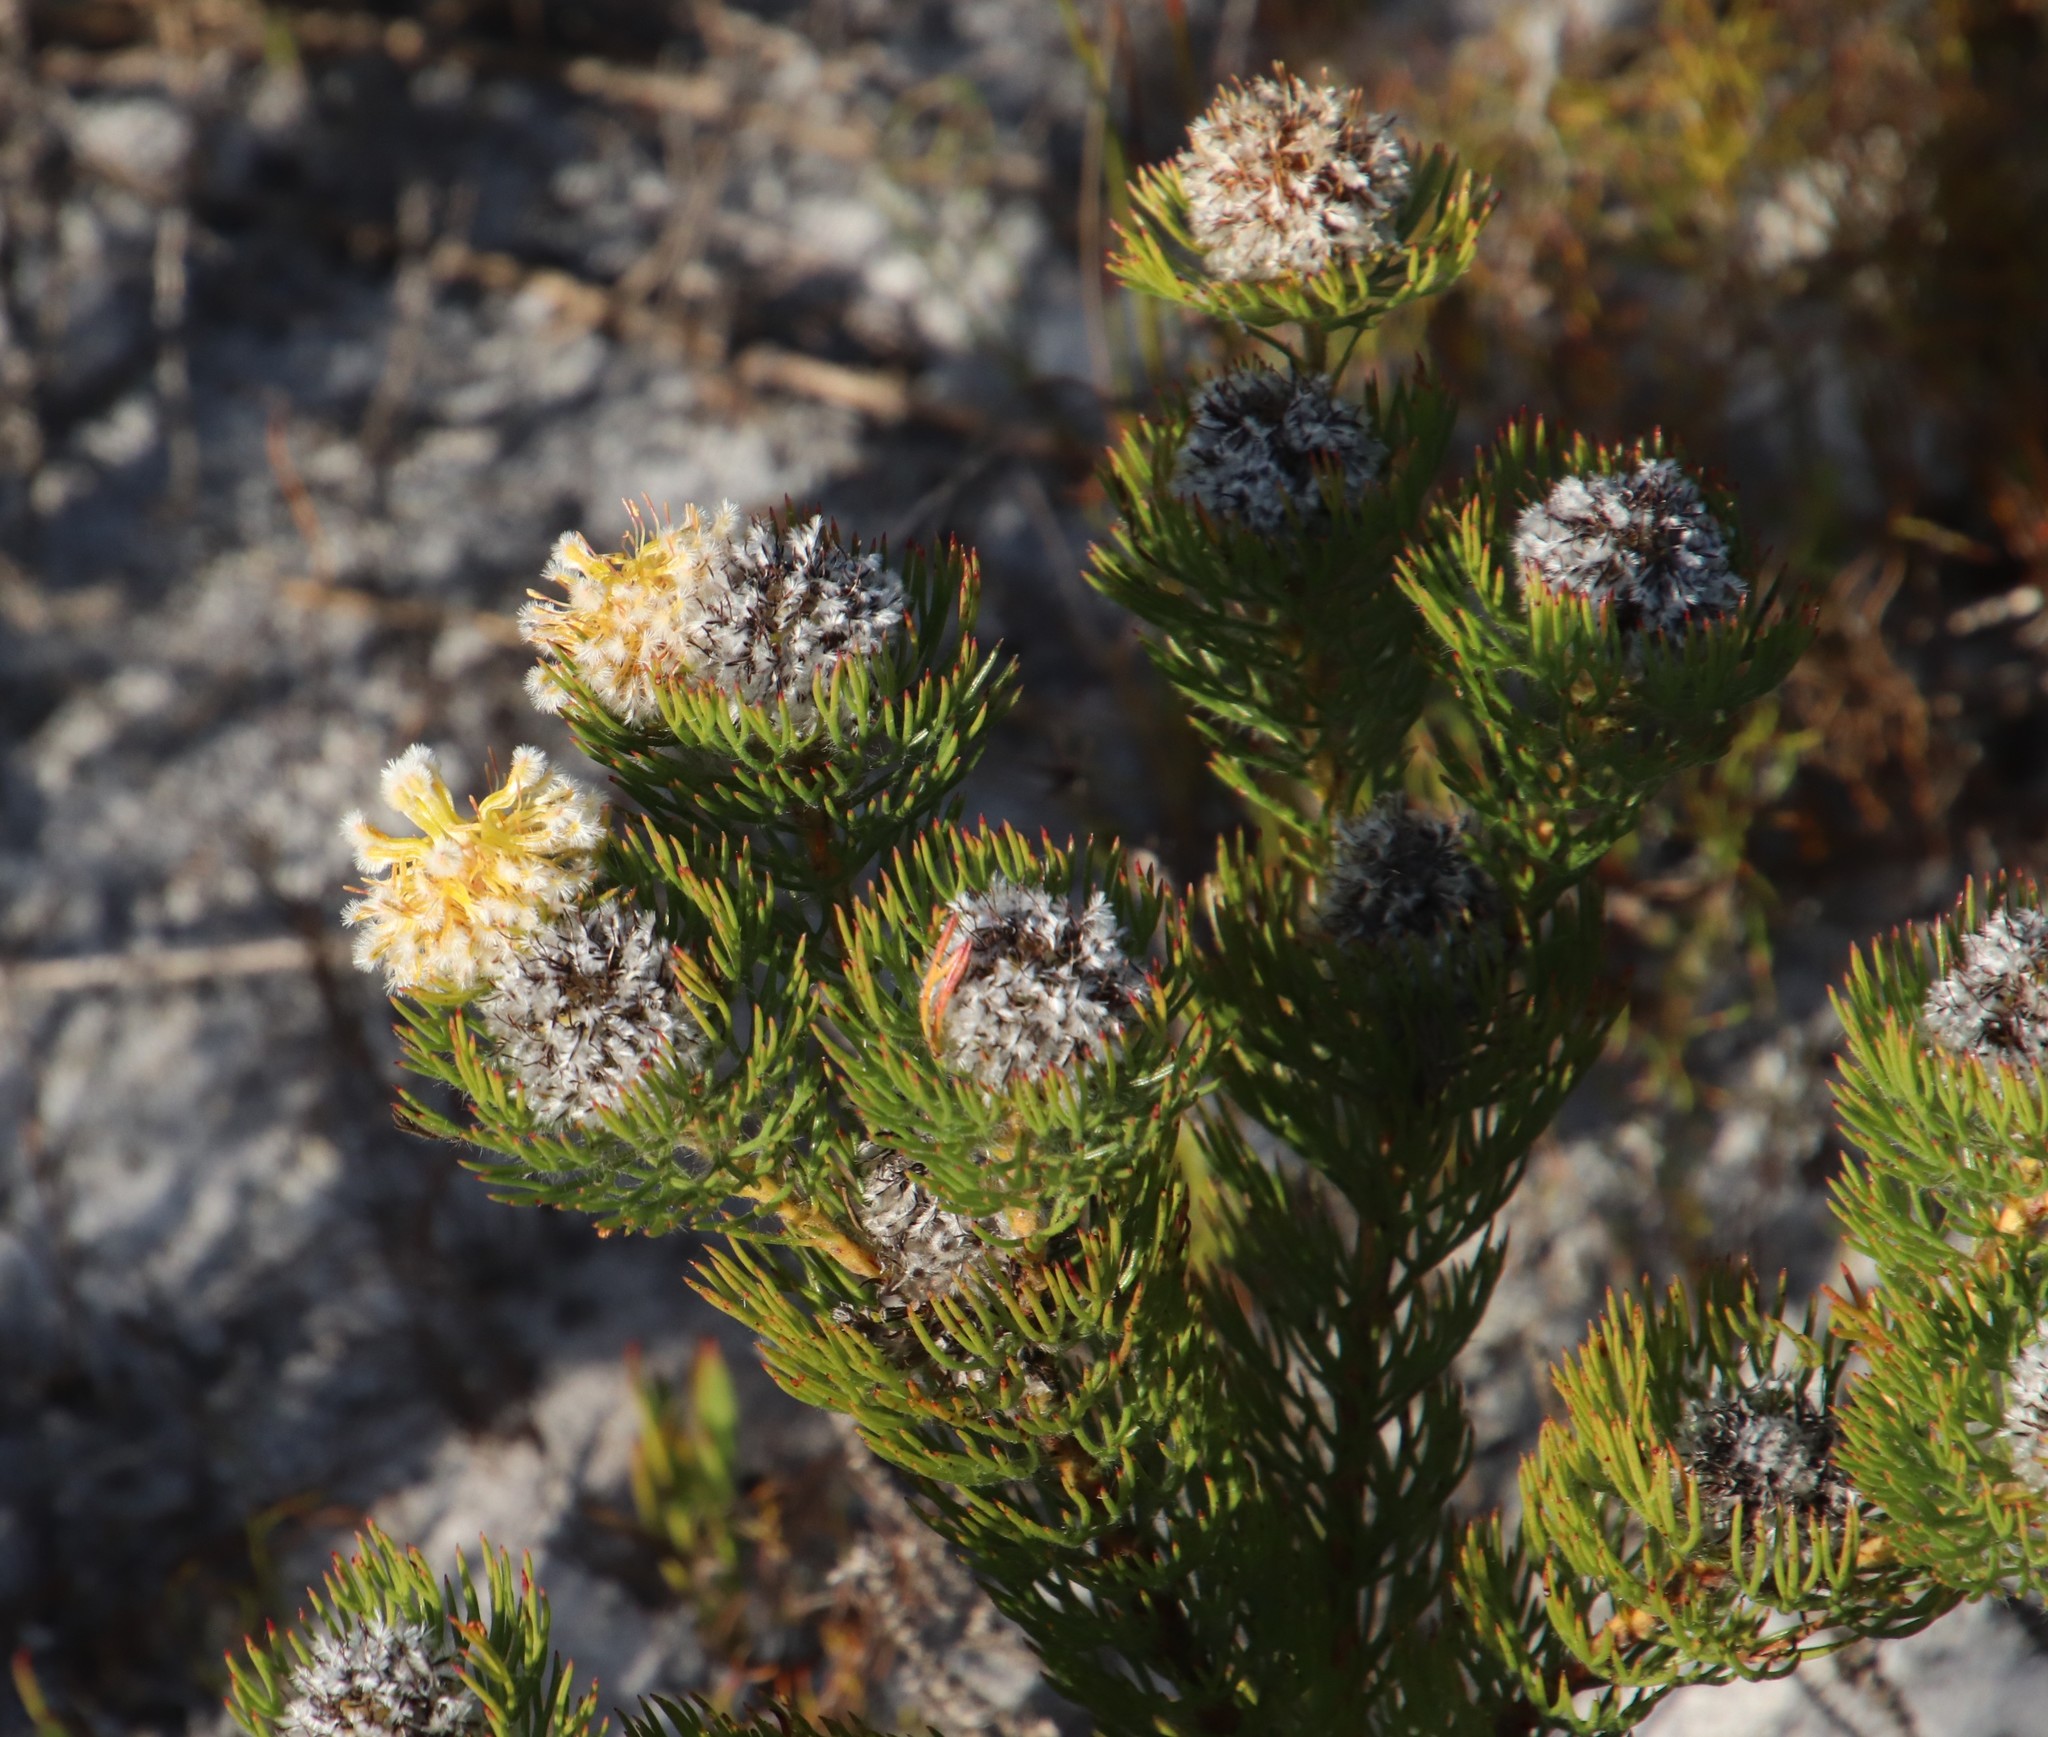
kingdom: Plantae
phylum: Tracheophyta
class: Magnoliopsida
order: Proteales
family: Proteaceae
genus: Serruria
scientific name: Serruria villosa
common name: Golden spiderhead
